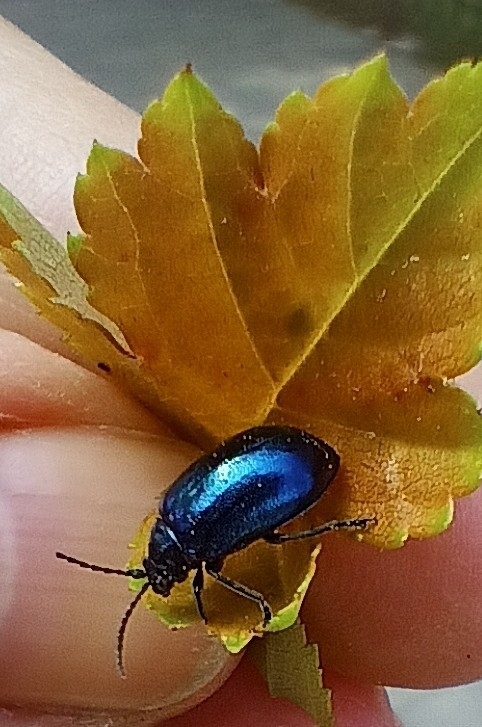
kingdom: Animalia
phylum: Arthropoda
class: Insecta
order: Coleoptera
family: Chrysomelidae
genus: Agelastica
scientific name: Agelastica alni
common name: Alder leaf beetle
